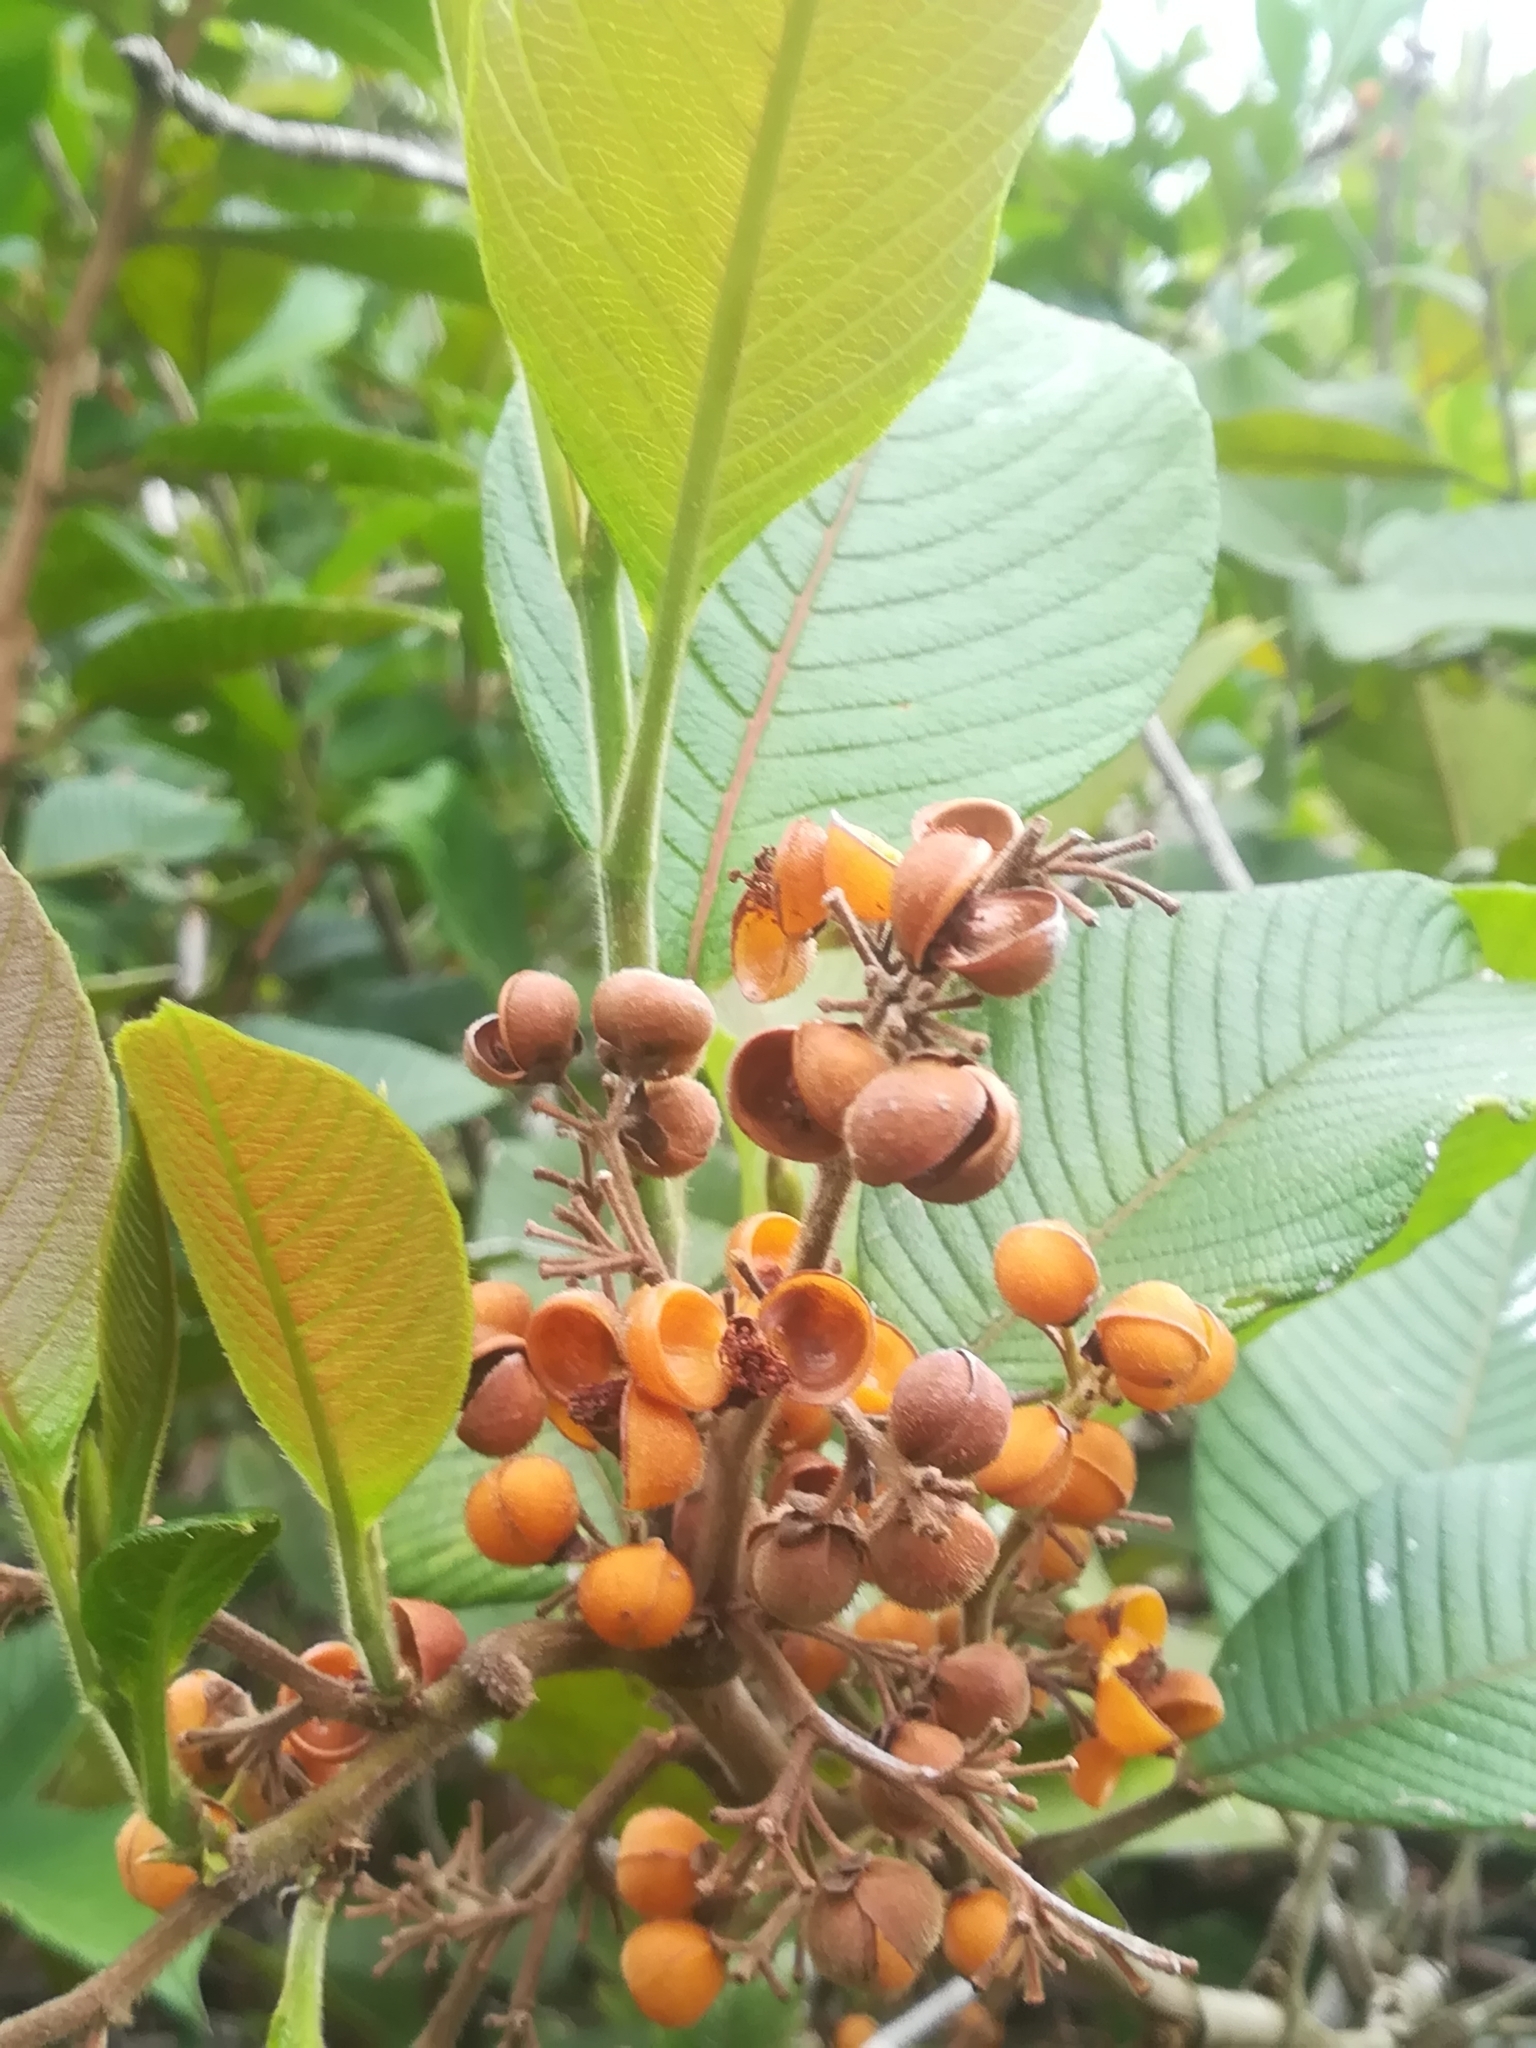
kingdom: Plantae
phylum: Tracheophyta
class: Magnoliopsida
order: Dilleniales
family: Dilleniaceae
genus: Davilla
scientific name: Davilla kunthii
